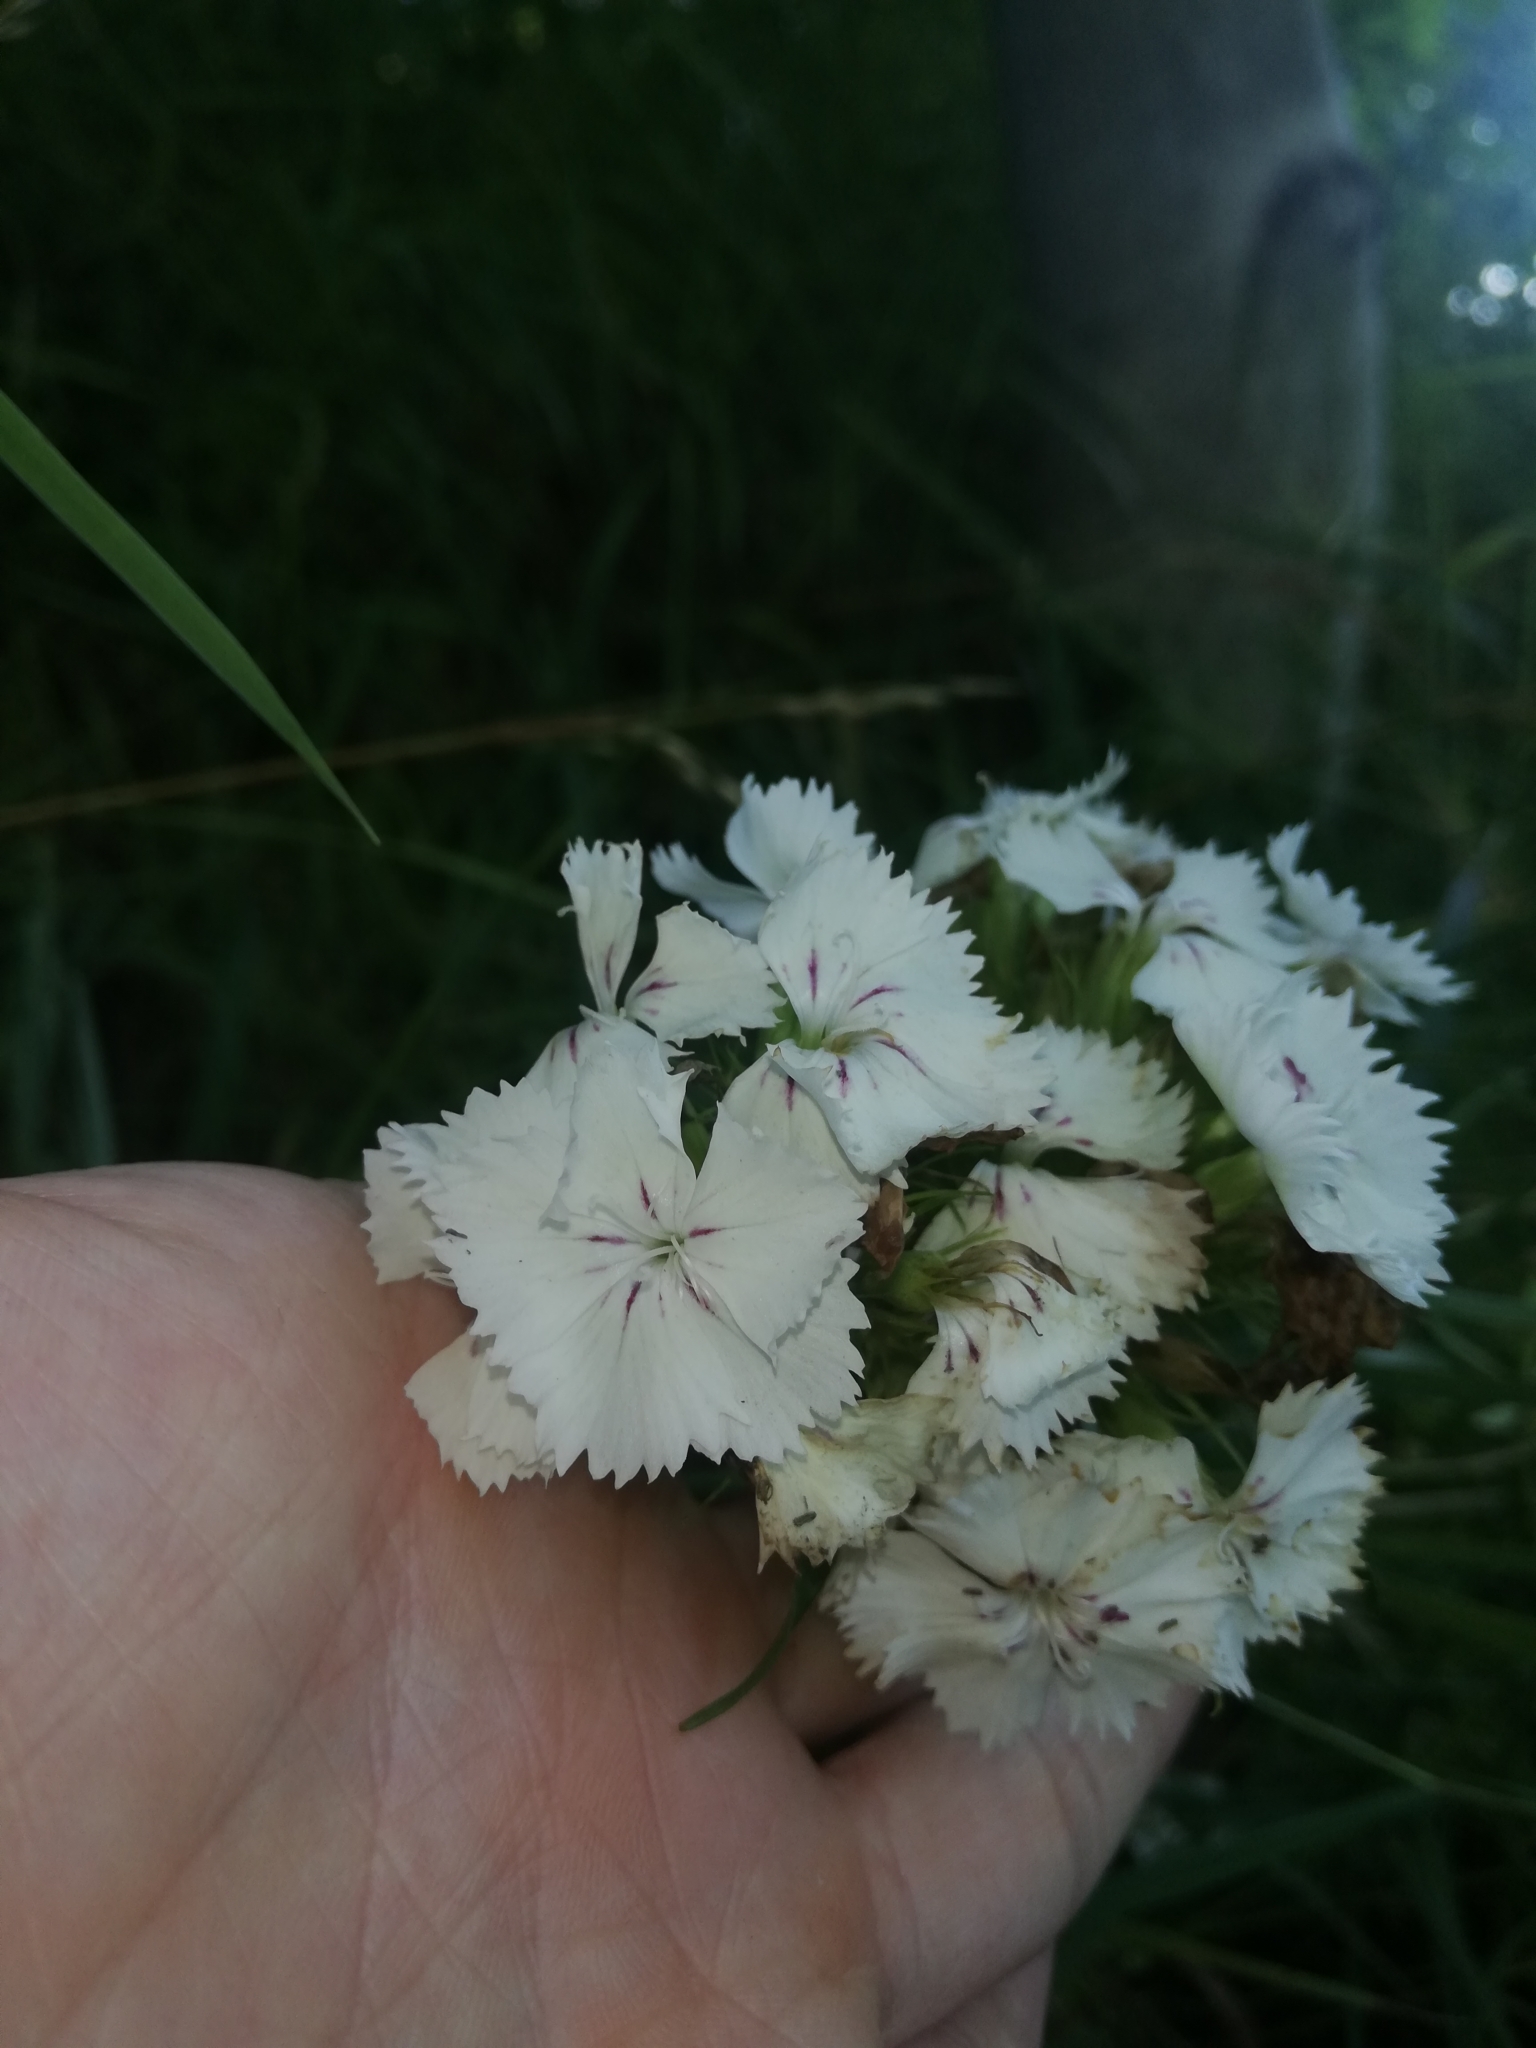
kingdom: Plantae
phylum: Tracheophyta
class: Magnoliopsida
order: Caryophyllales
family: Caryophyllaceae
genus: Dianthus
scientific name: Dianthus barbatus
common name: Sweet-william
